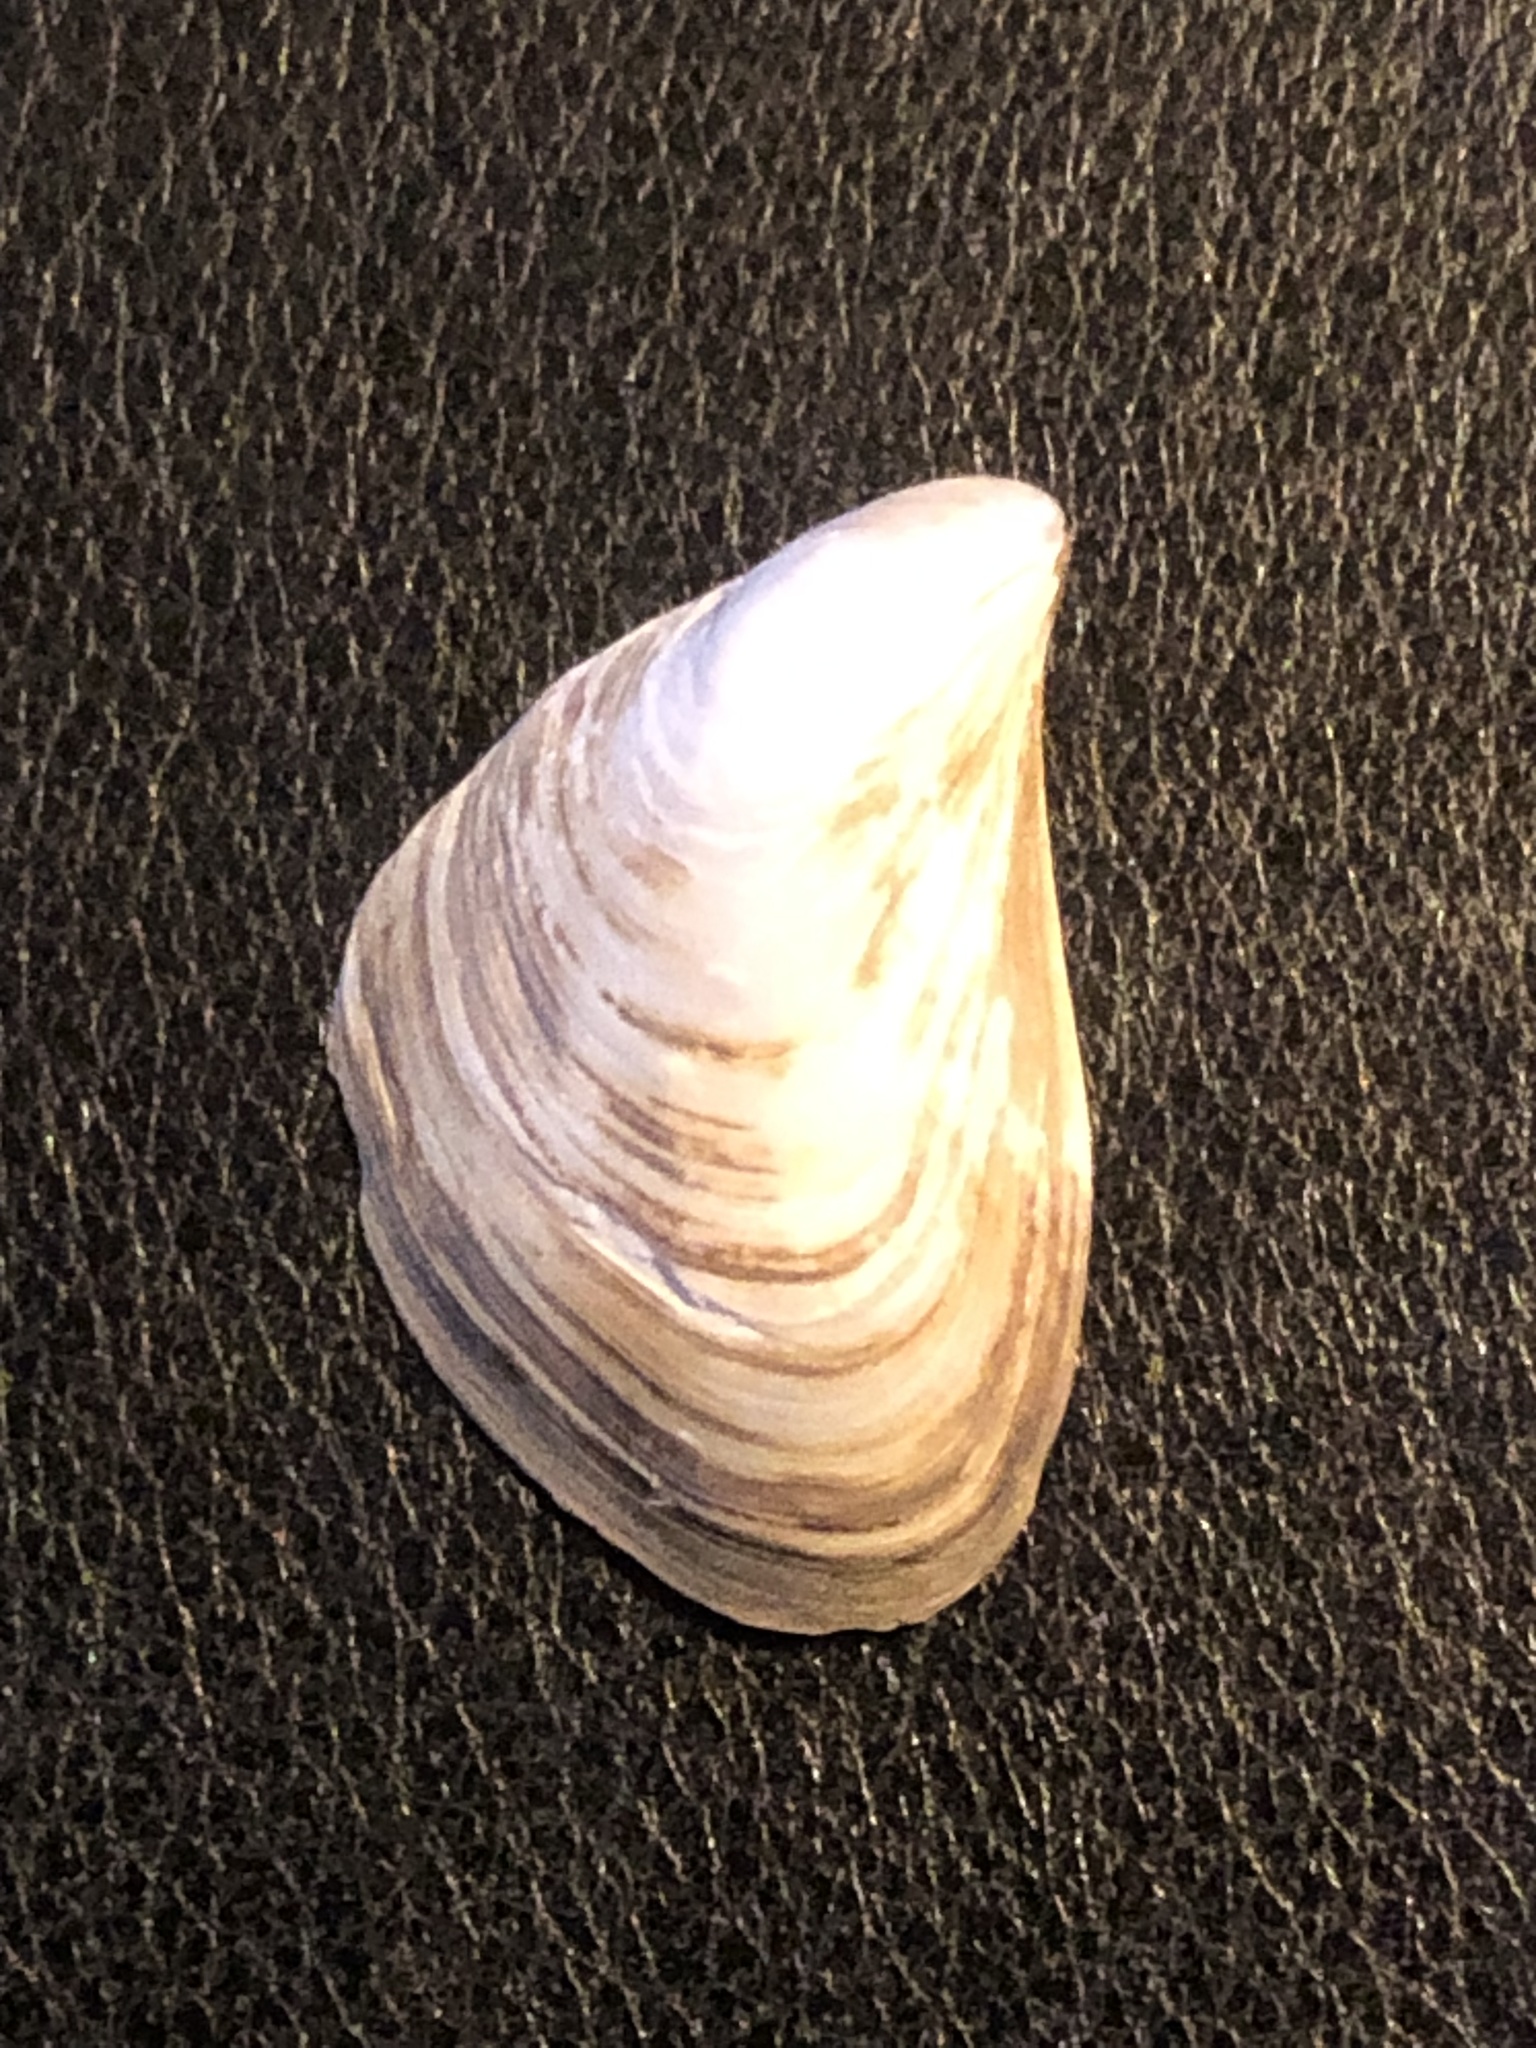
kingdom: Animalia
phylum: Mollusca
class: Bivalvia
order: Myida
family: Dreissenidae
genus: Dreissena
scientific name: Dreissena bugensis
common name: Quagga mussel
